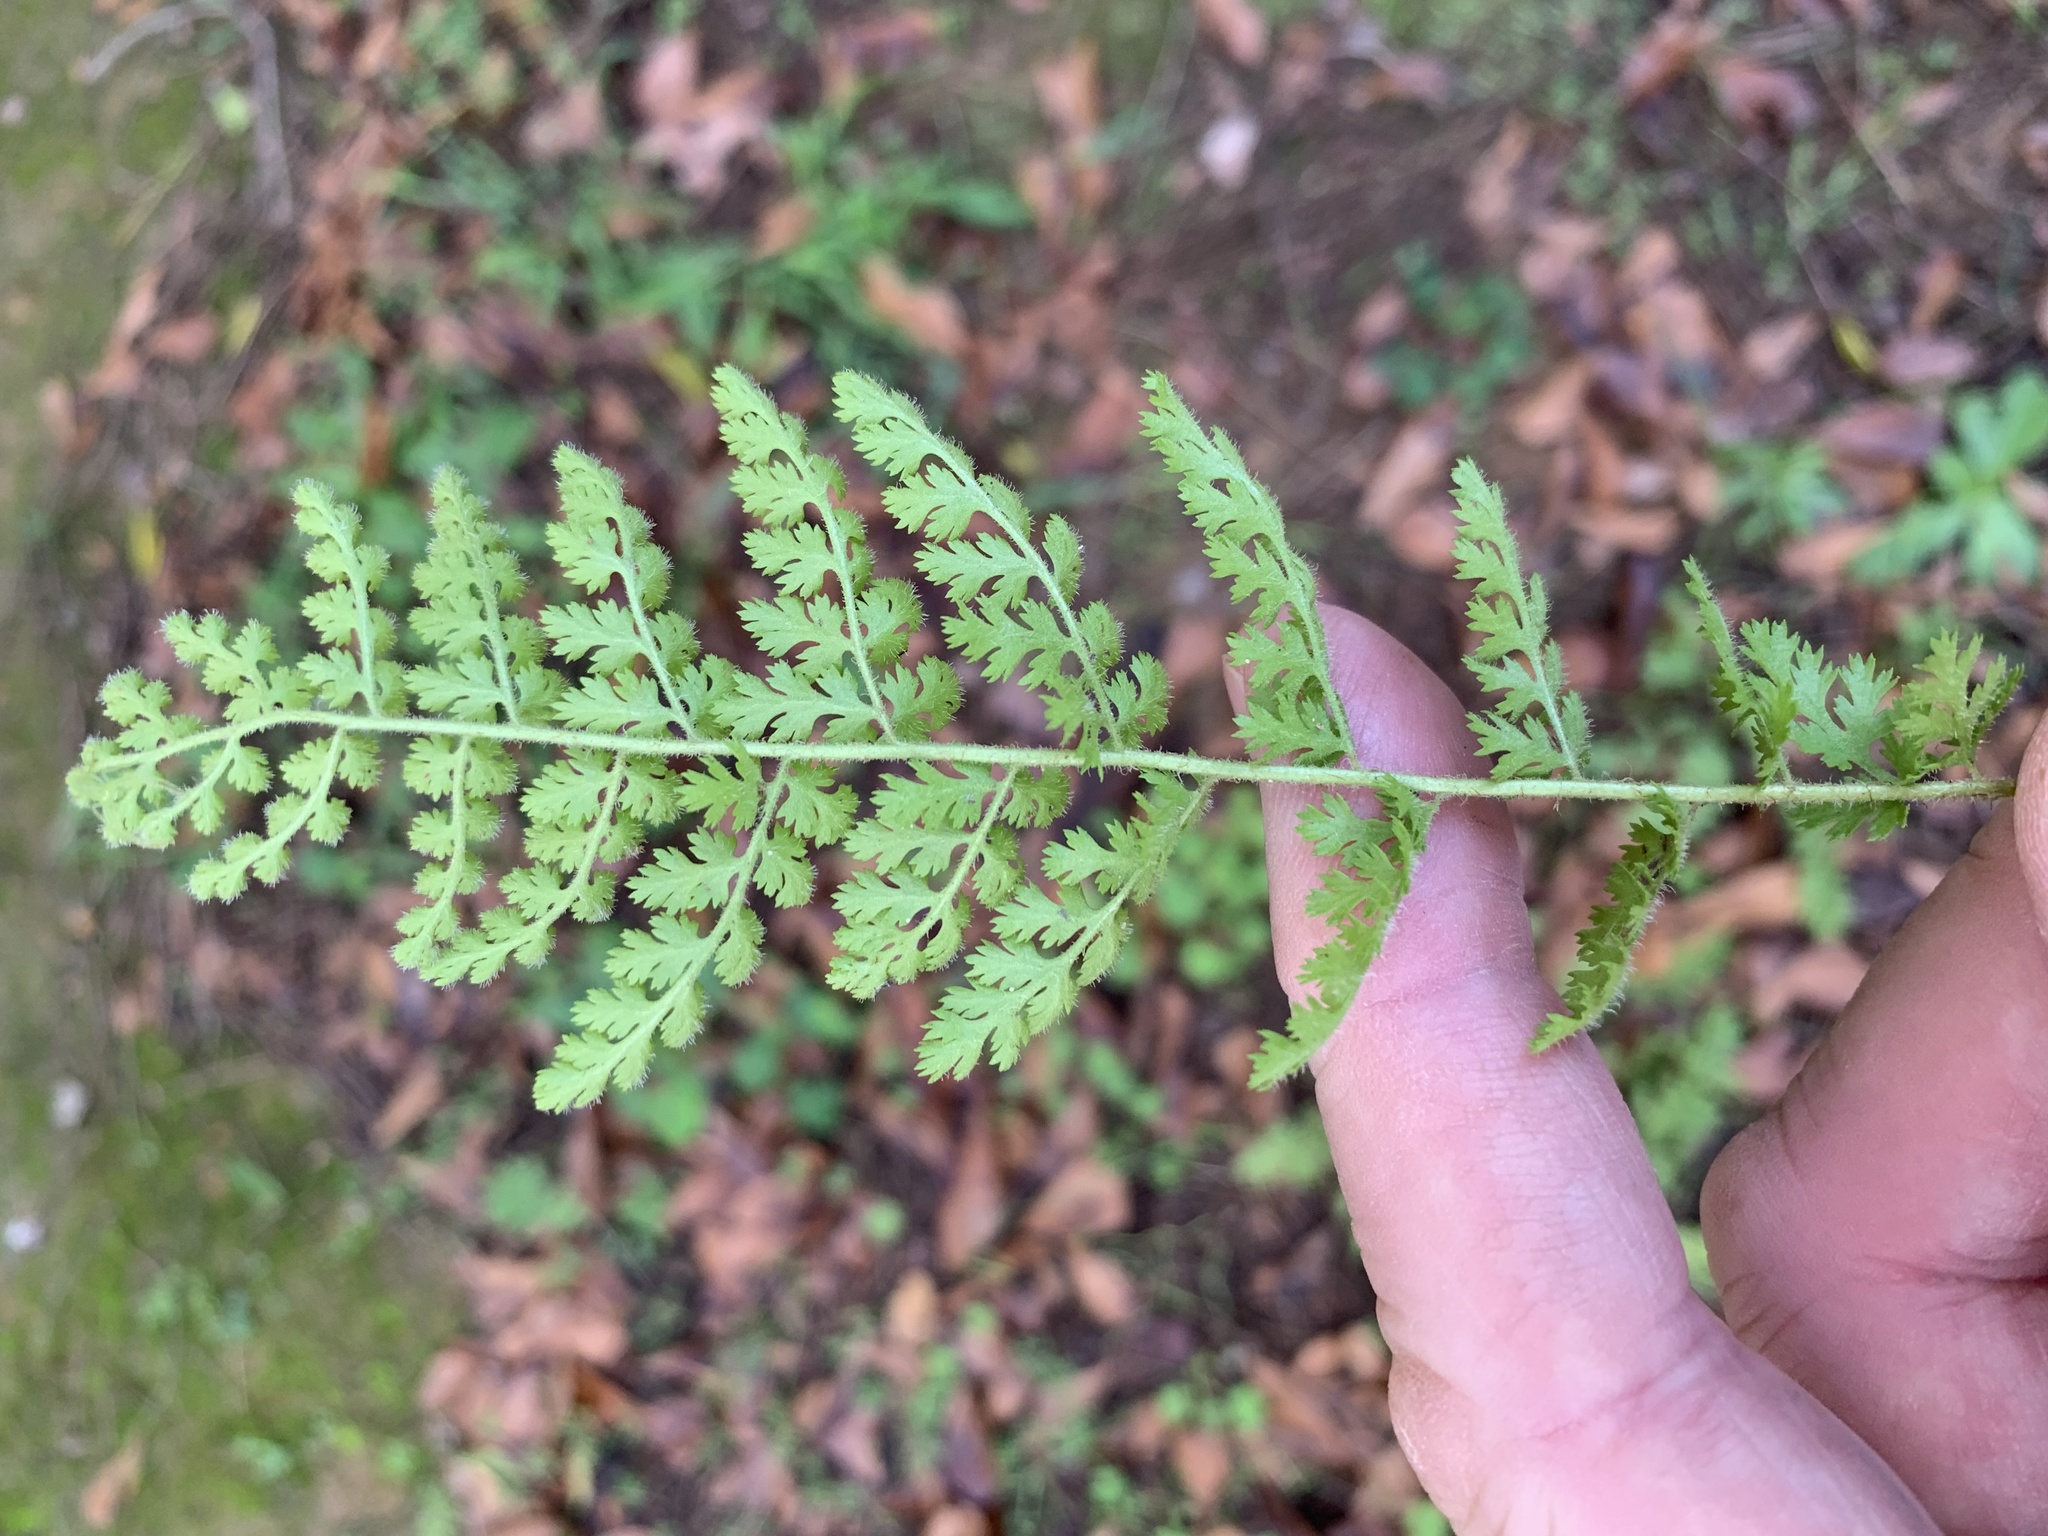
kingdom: Plantae
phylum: Tracheophyta
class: Polypodiopsida
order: Schizaeales
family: Anemiaceae
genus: Anemia
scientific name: Anemia caffrorum
